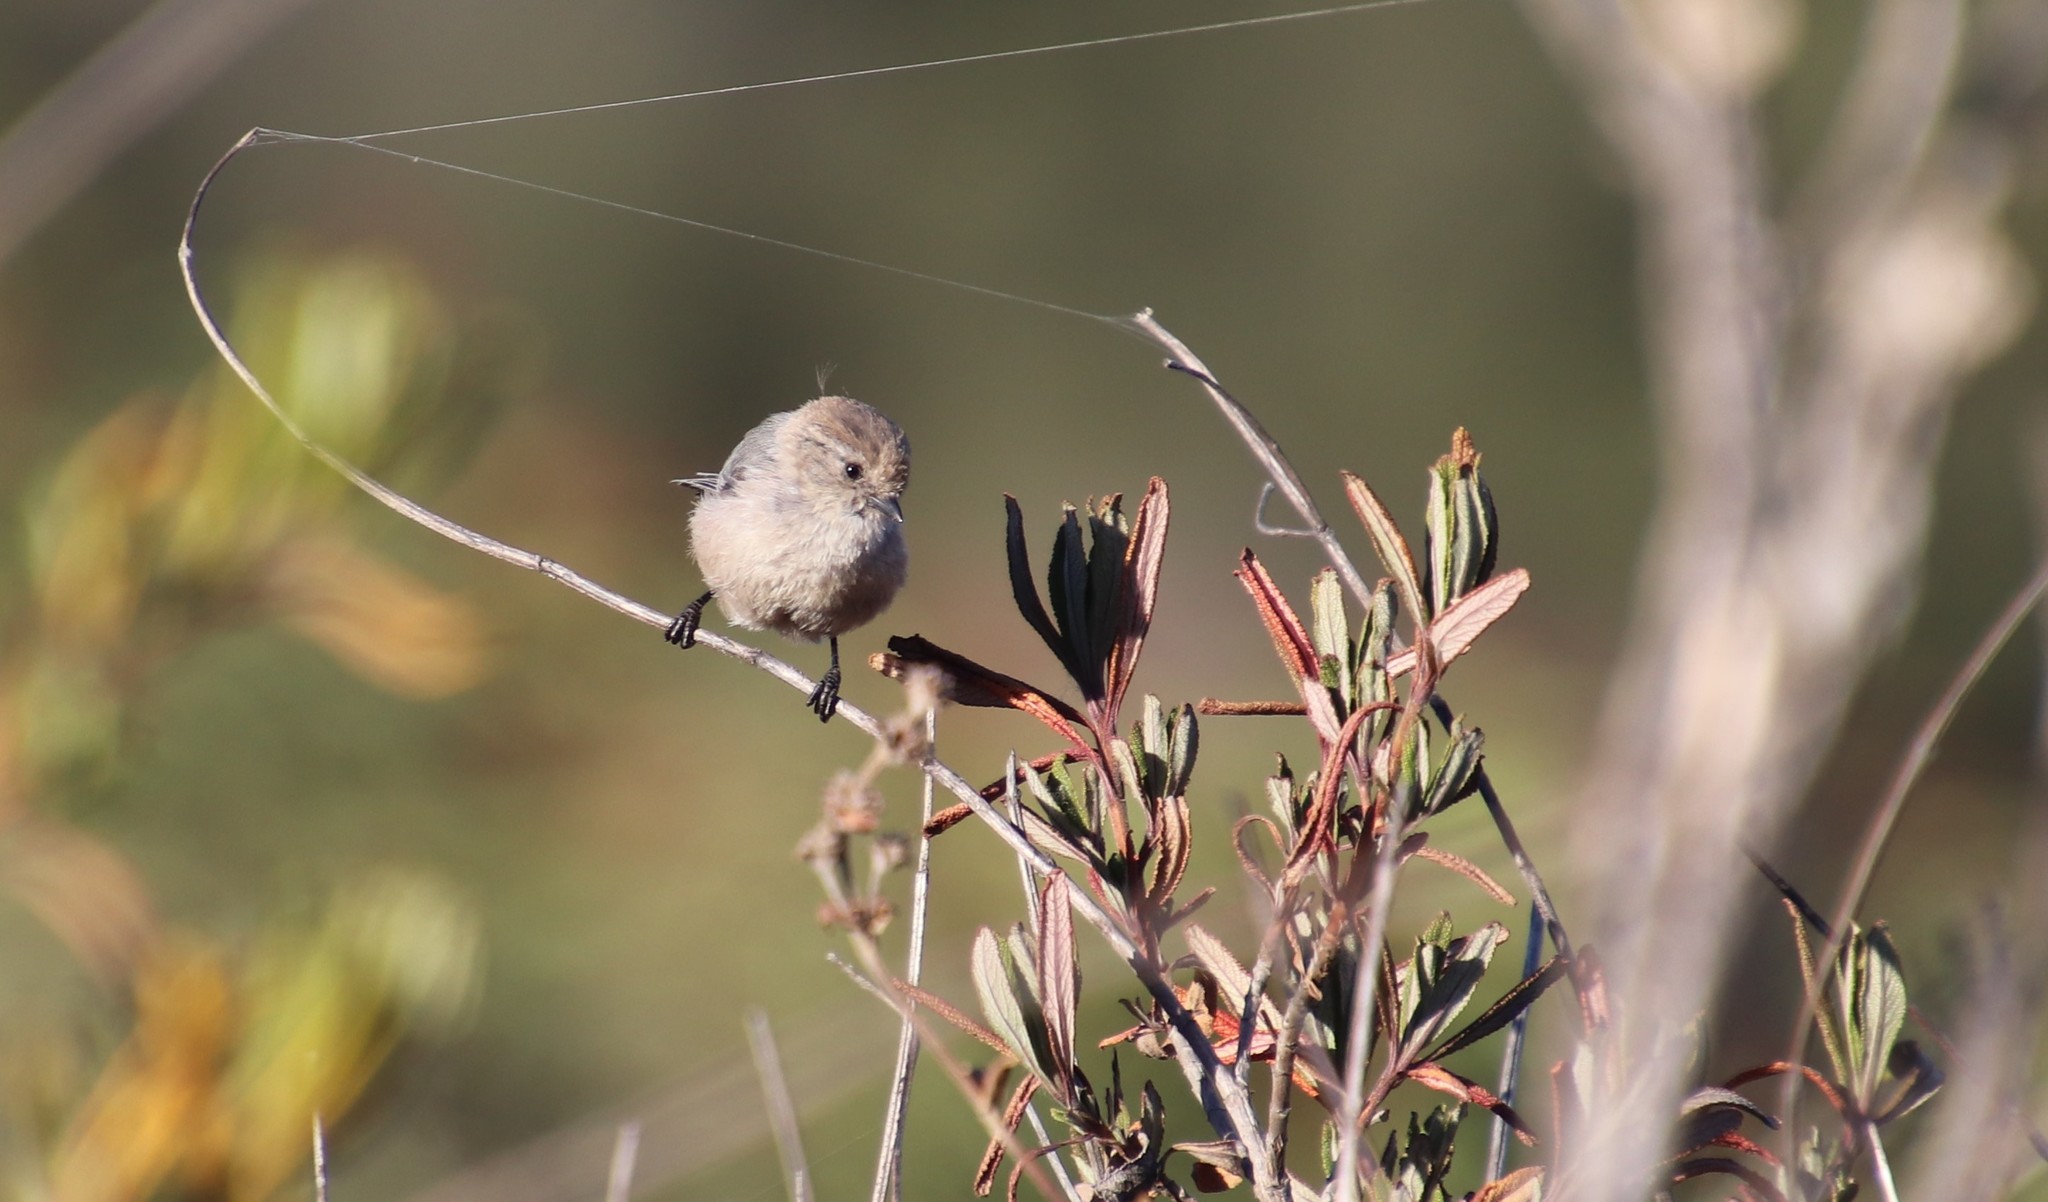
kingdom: Animalia
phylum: Chordata
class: Aves
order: Passeriformes
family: Aegithalidae
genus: Psaltriparus
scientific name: Psaltriparus minimus
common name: American bushtit
